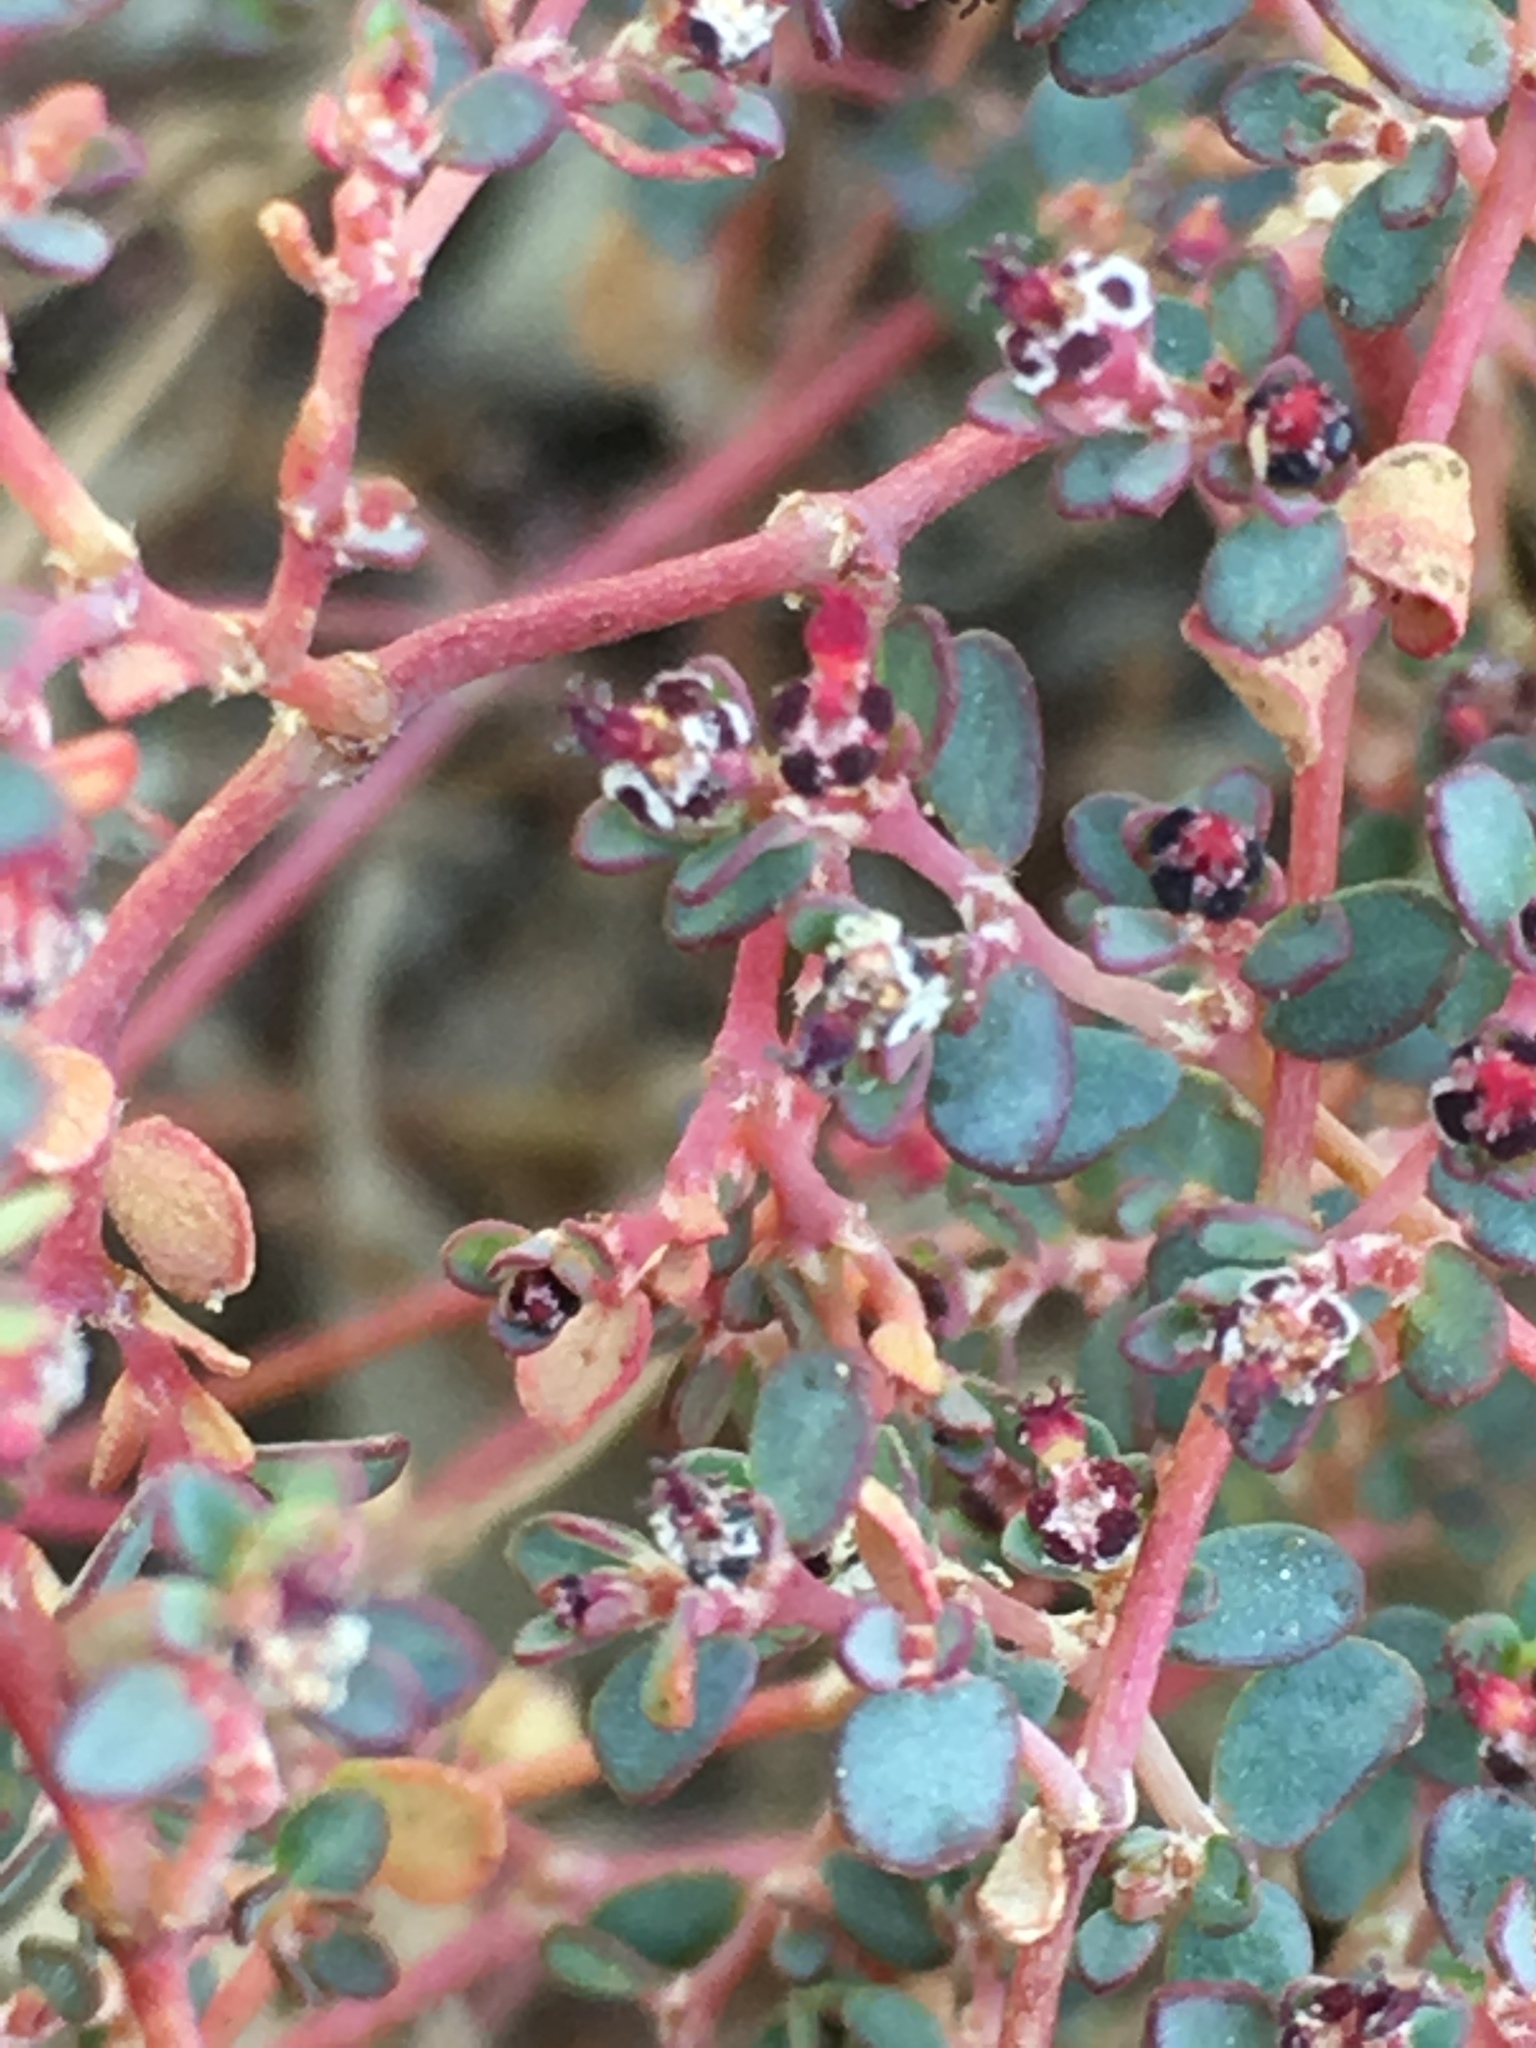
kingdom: Plantae
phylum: Tracheophyta
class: Magnoliopsida
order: Malpighiales
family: Euphorbiaceae
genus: Euphorbia
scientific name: Euphorbia polycarpa
